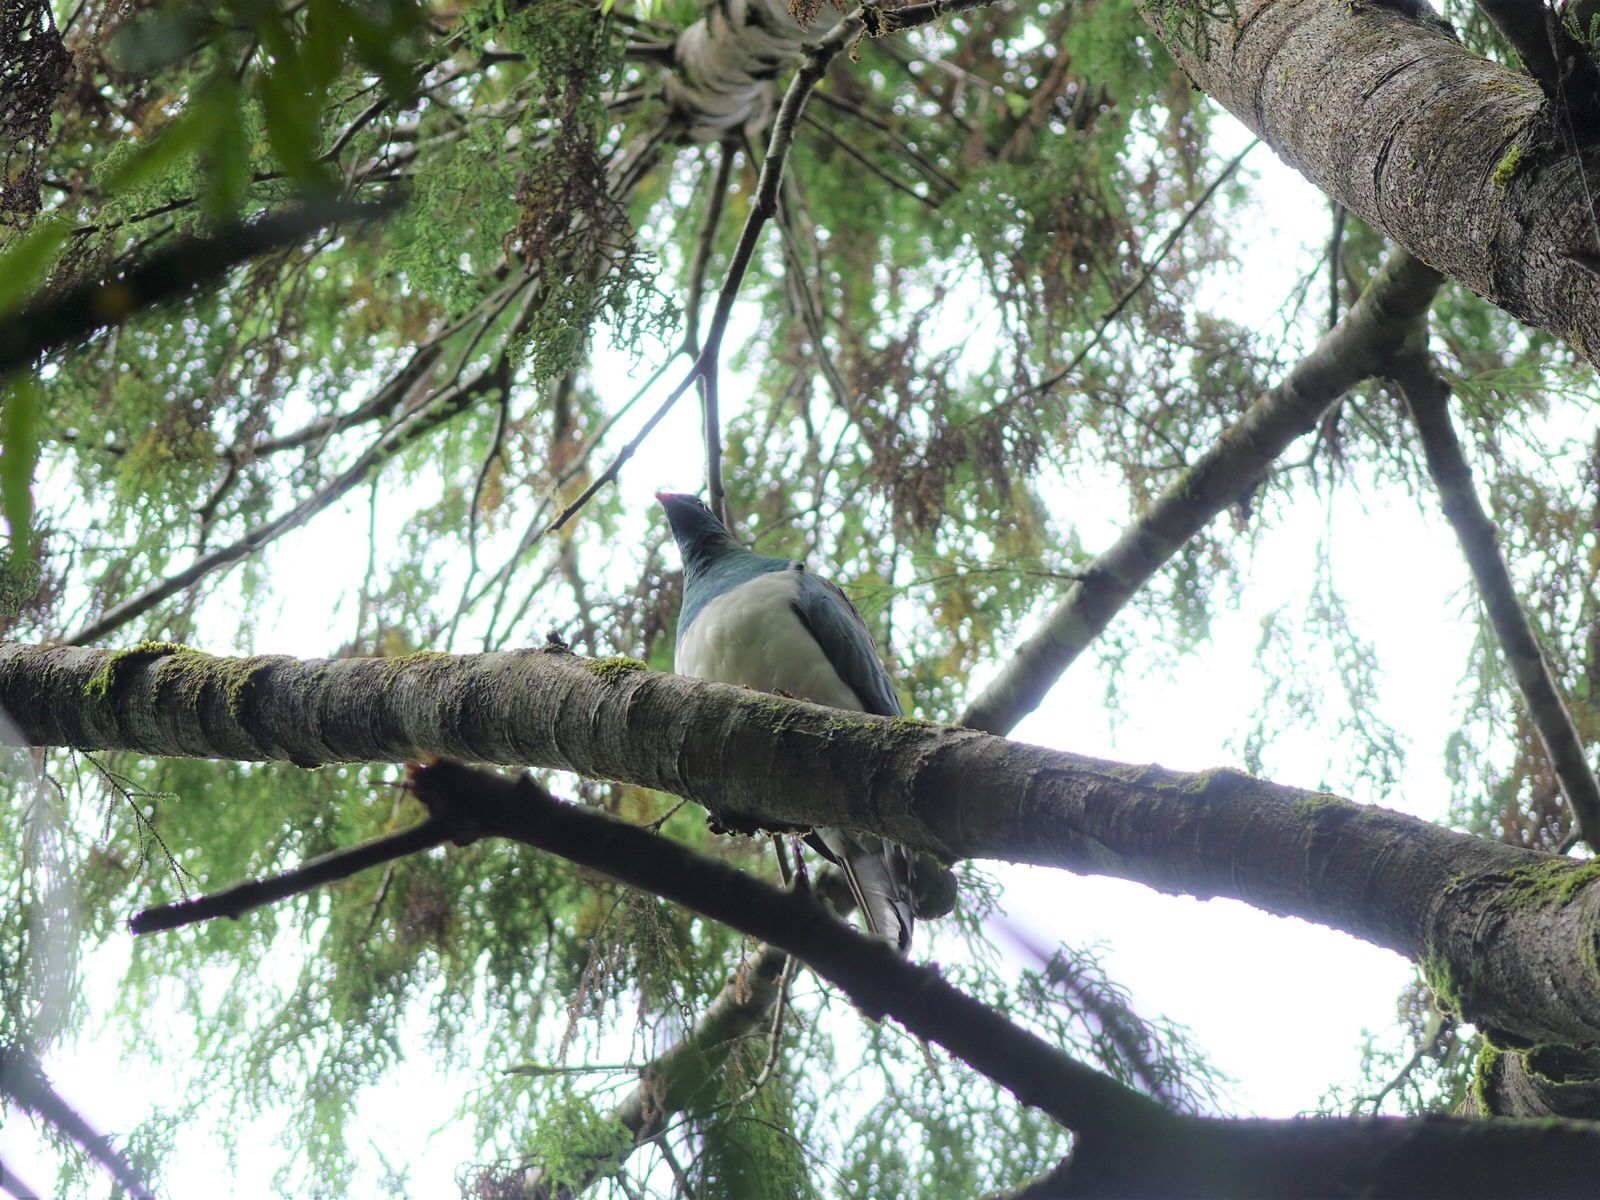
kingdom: Animalia
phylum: Chordata
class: Aves
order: Columbiformes
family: Columbidae
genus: Hemiphaga
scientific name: Hemiphaga novaeseelandiae
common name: New zealand pigeon
